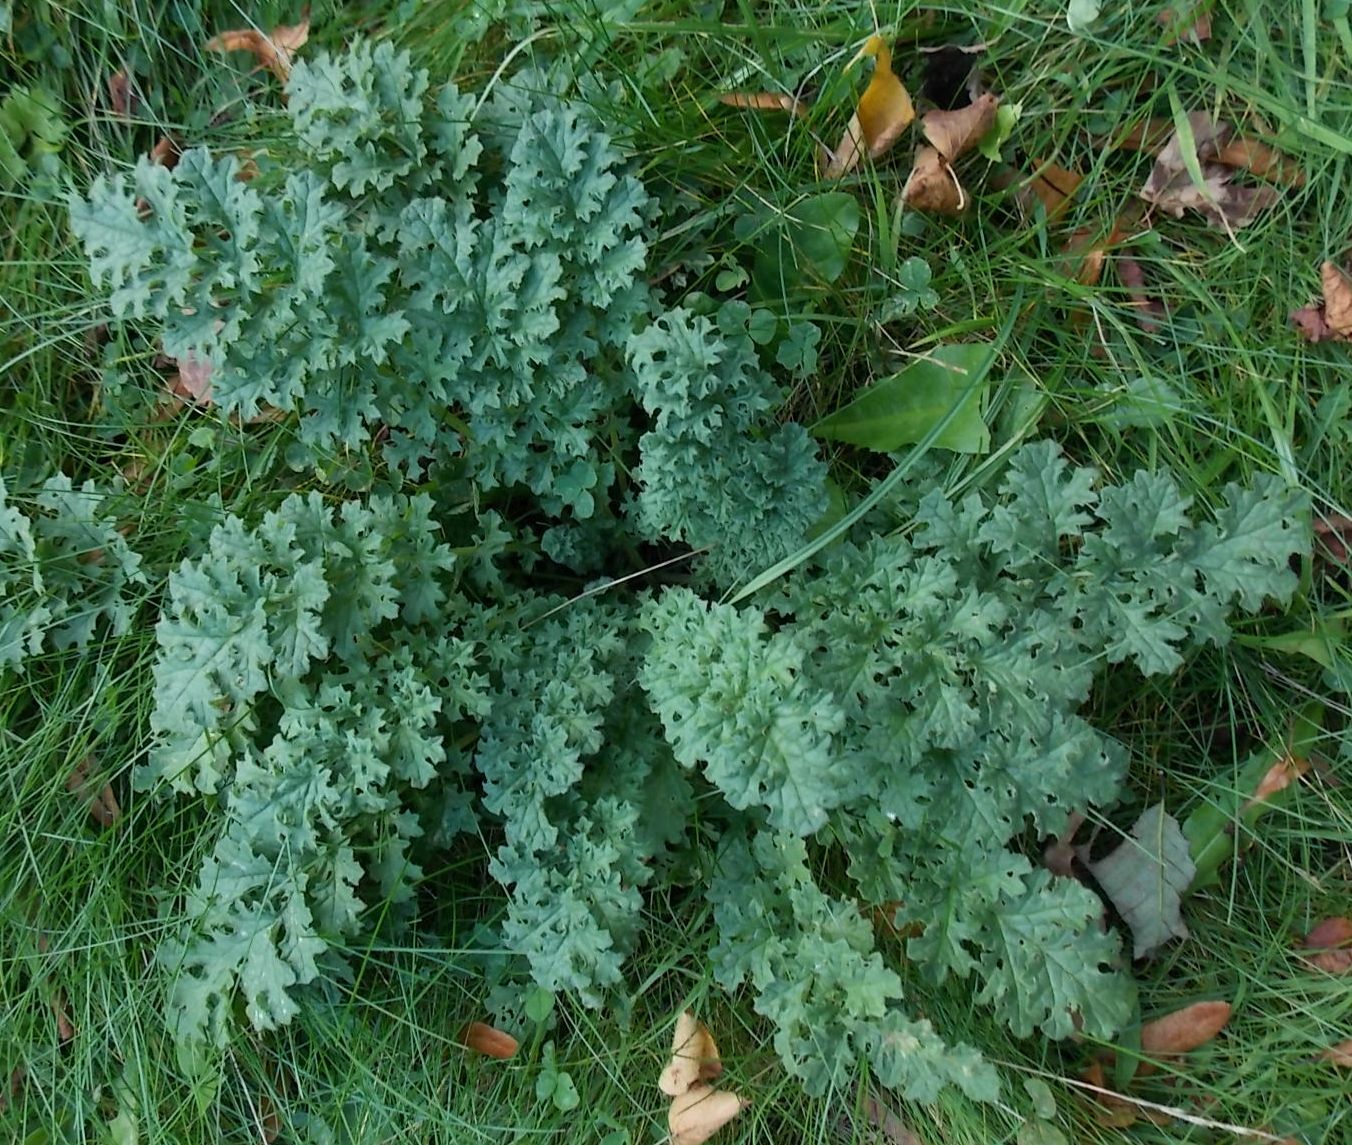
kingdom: Plantae
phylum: Tracheophyta
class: Magnoliopsida
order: Asterales
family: Asteraceae
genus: Jacobaea
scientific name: Jacobaea vulgaris
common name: Stinking willie
